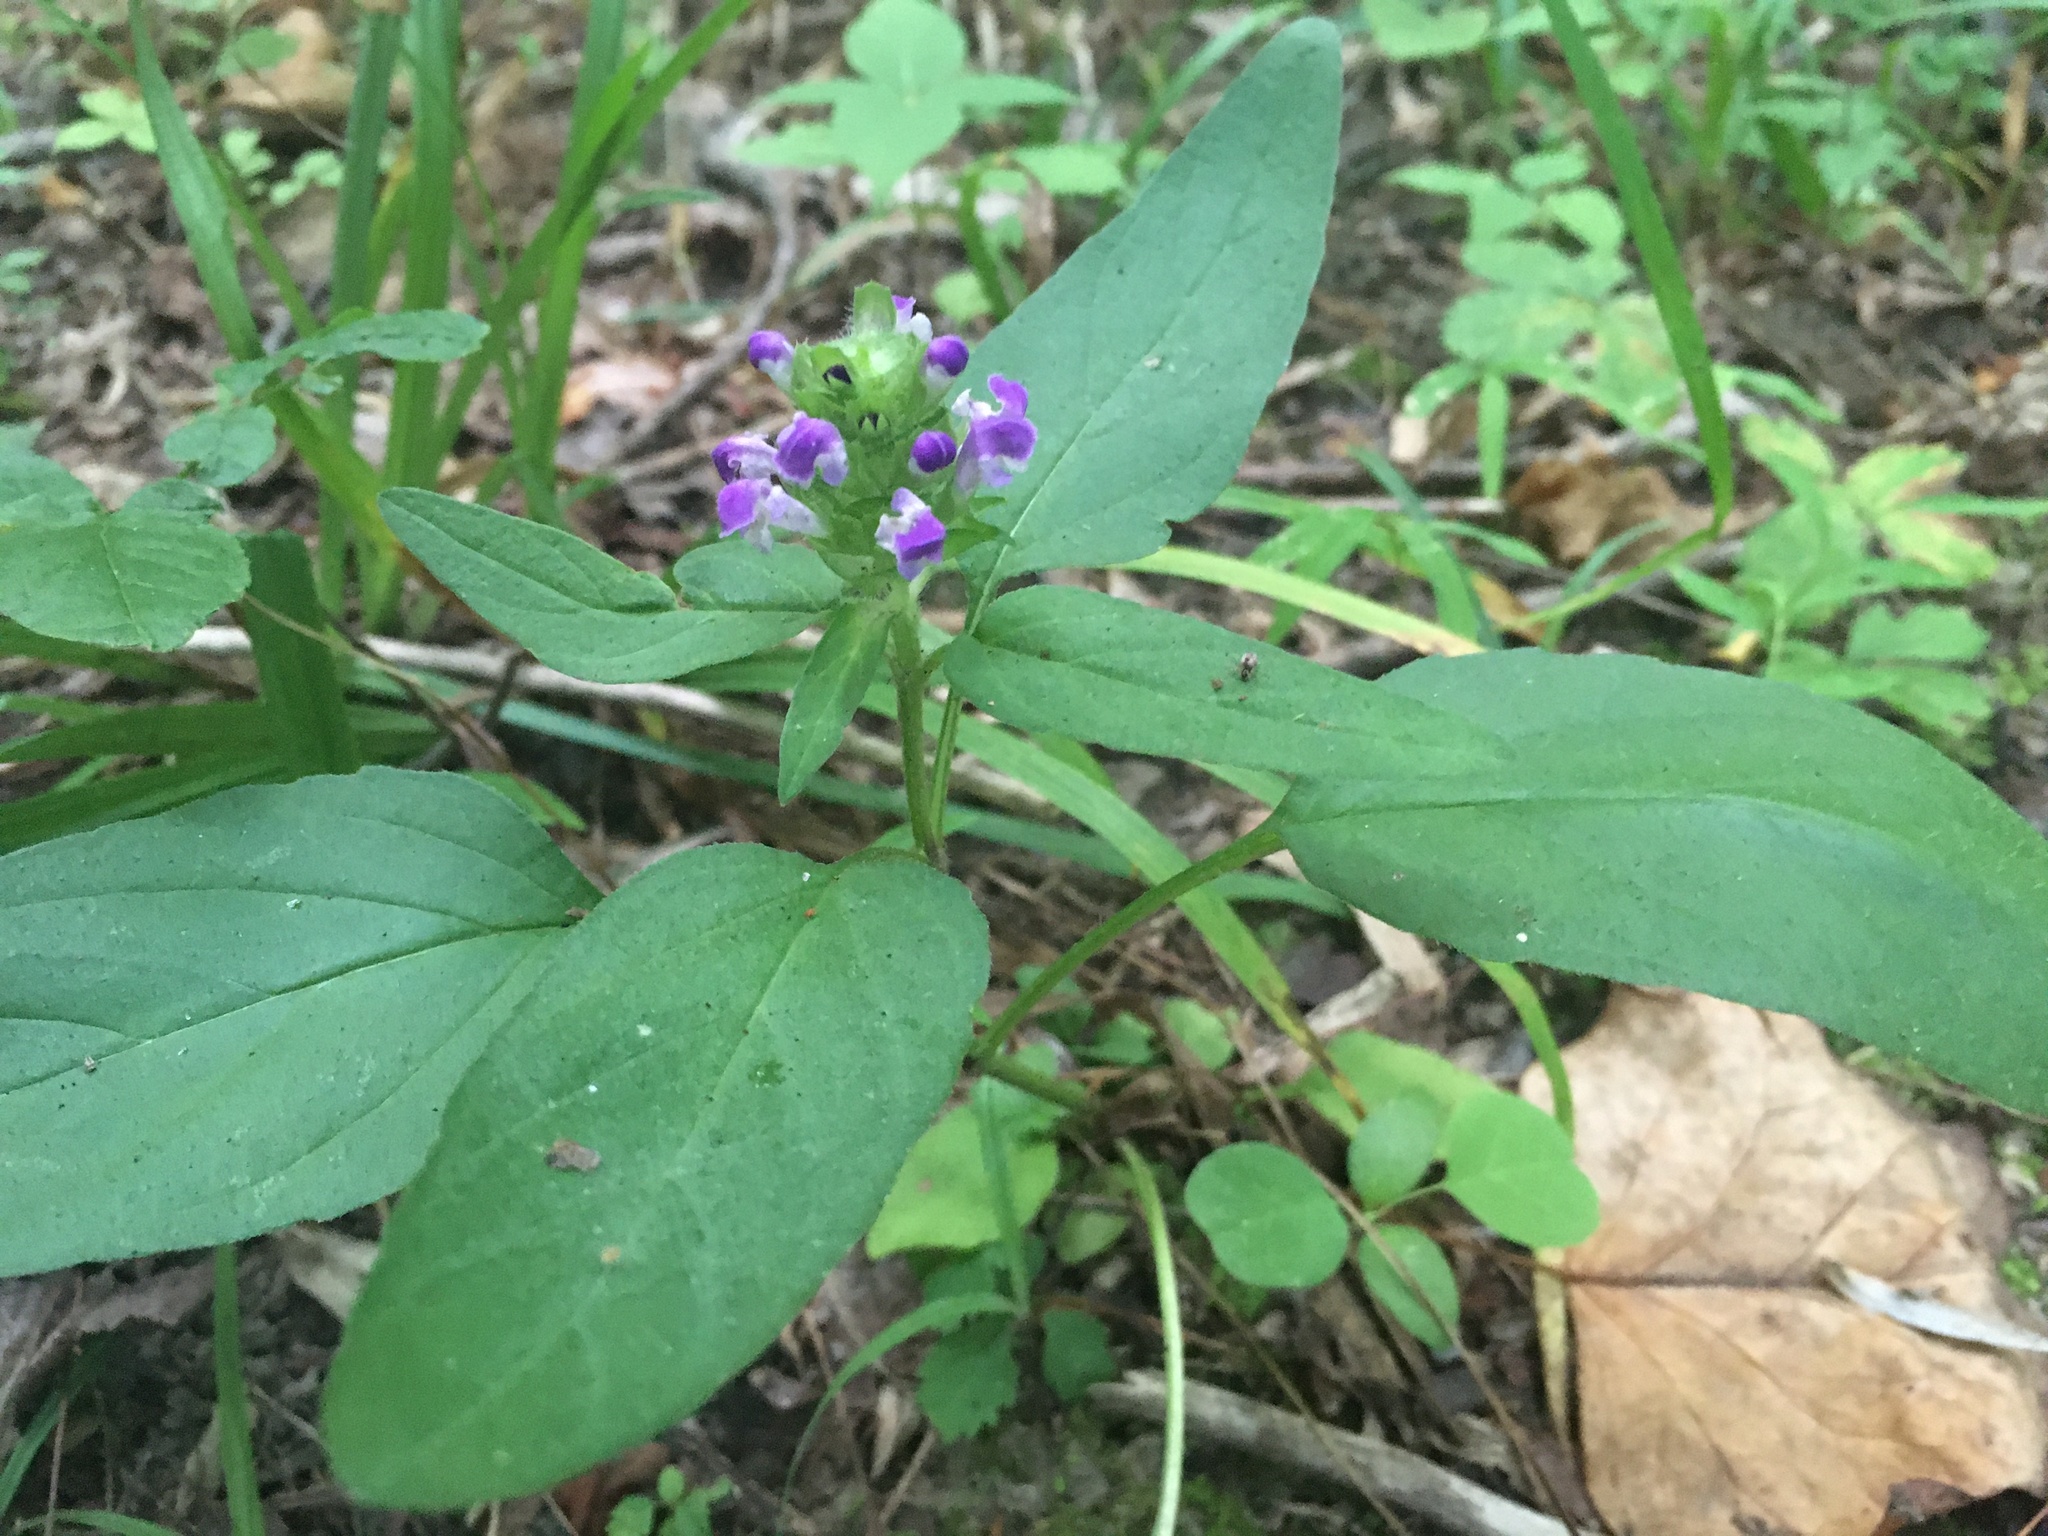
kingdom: Plantae
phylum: Tracheophyta
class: Magnoliopsida
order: Lamiales
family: Lamiaceae
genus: Prunella
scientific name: Prunella vulgaris
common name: Heal-all
